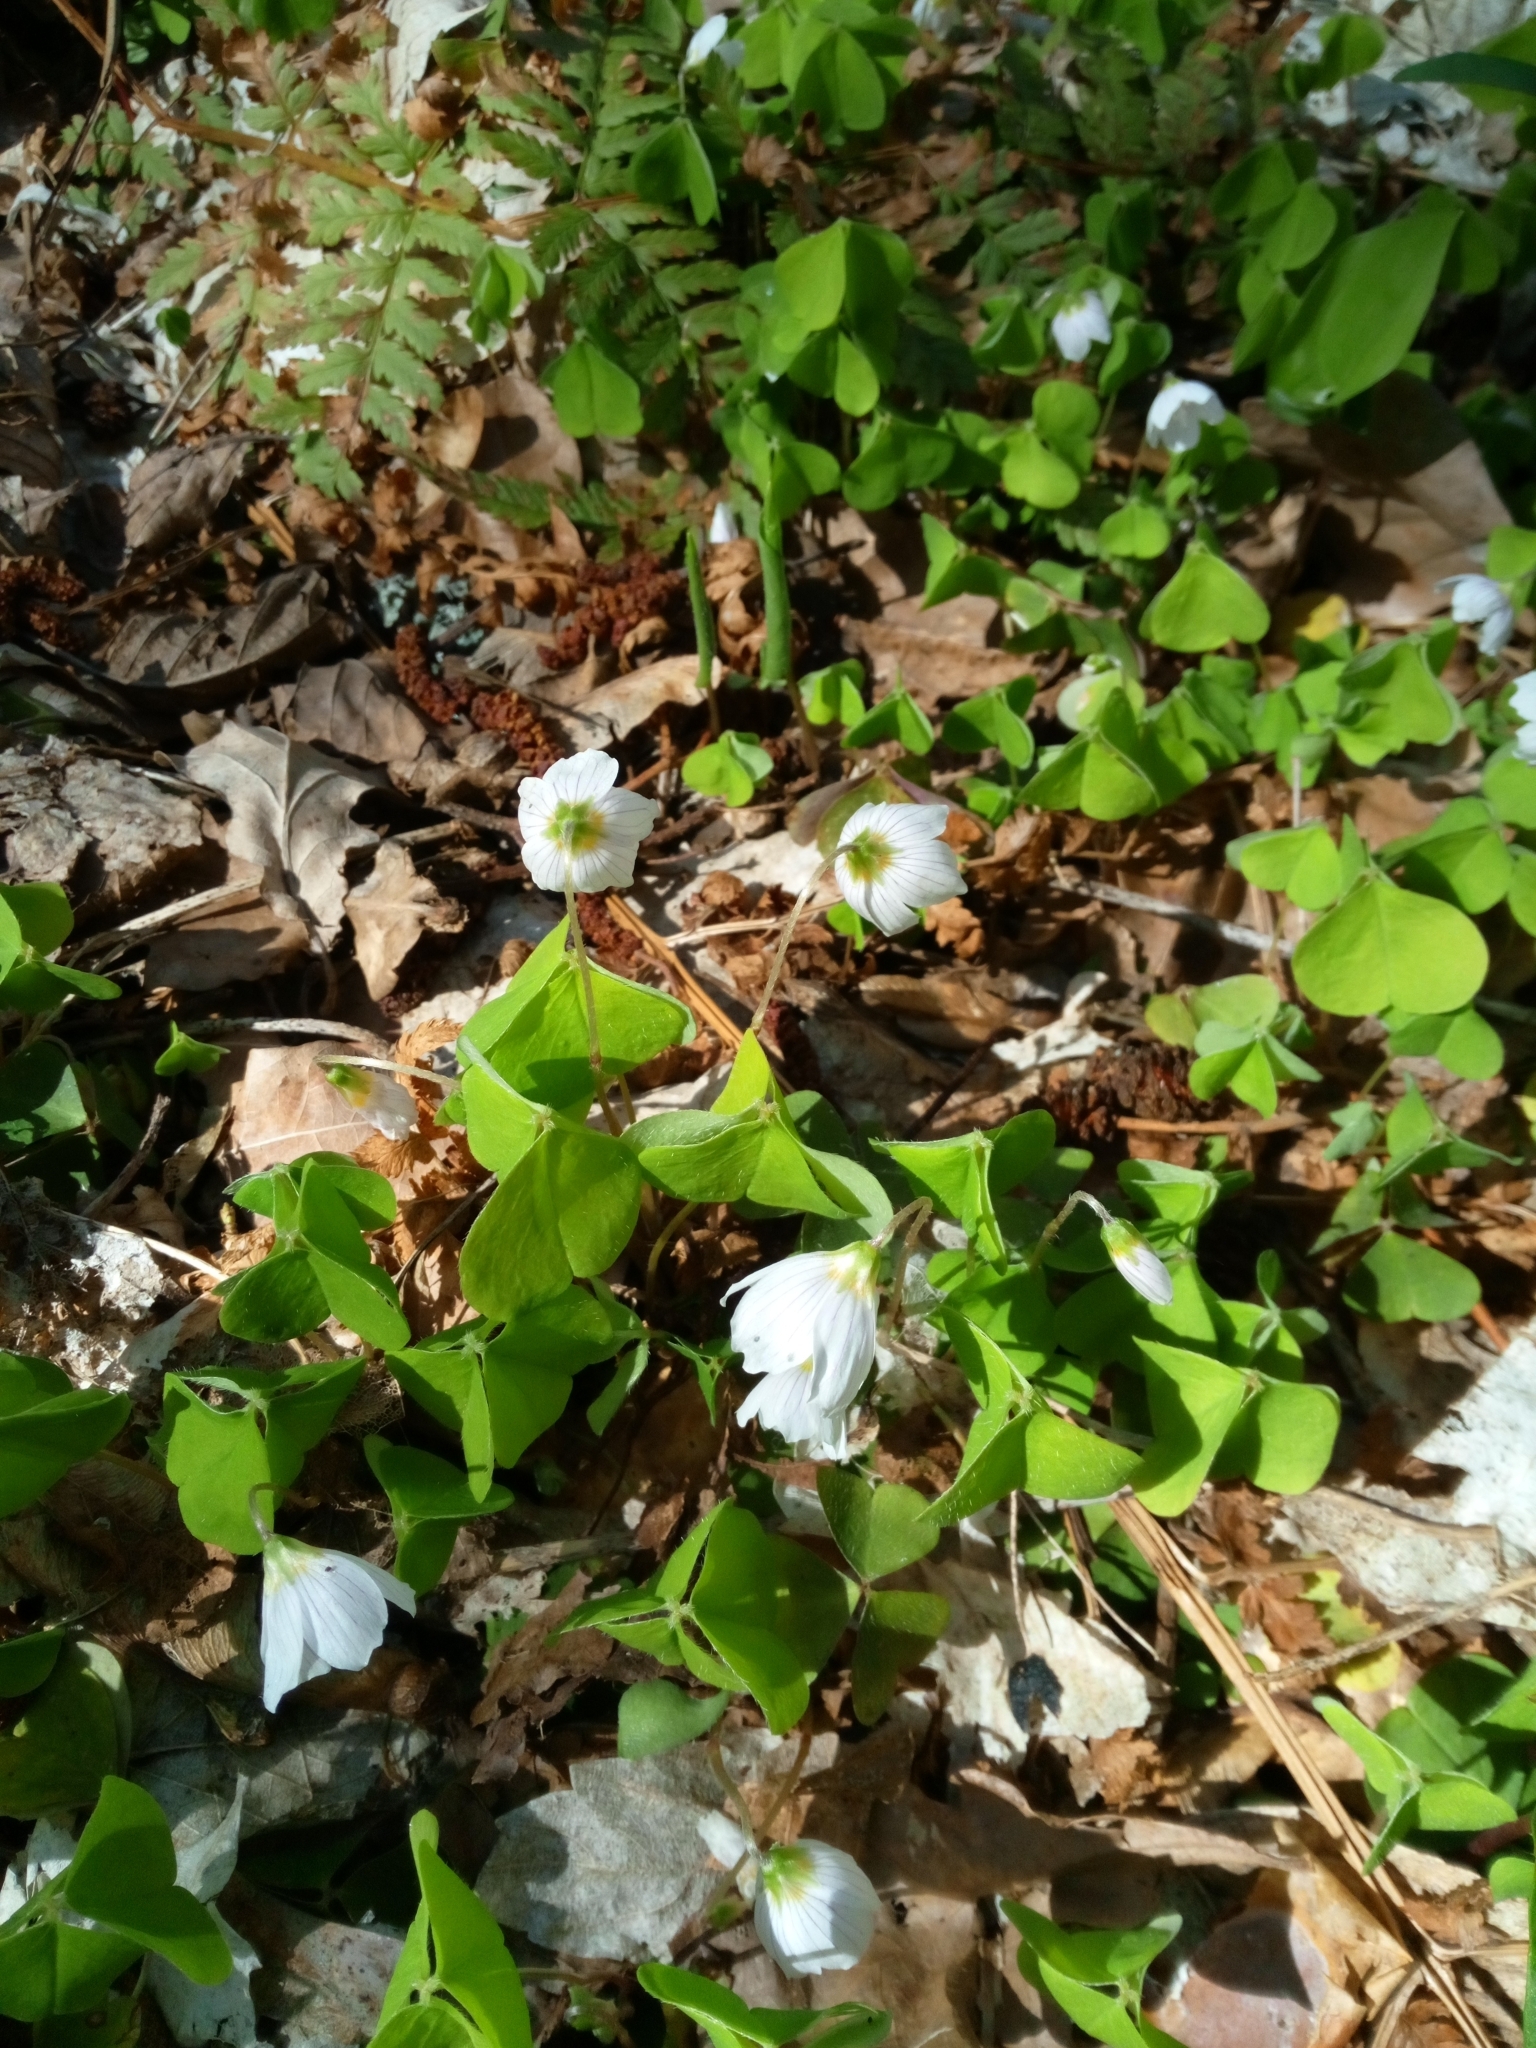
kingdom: Plantae
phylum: Tracheophyta
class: Magnoliopsida
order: Oxalidales
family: Oxalidaceae
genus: Oxalis
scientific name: Oxalis acetosella
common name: Wood-sorrel
